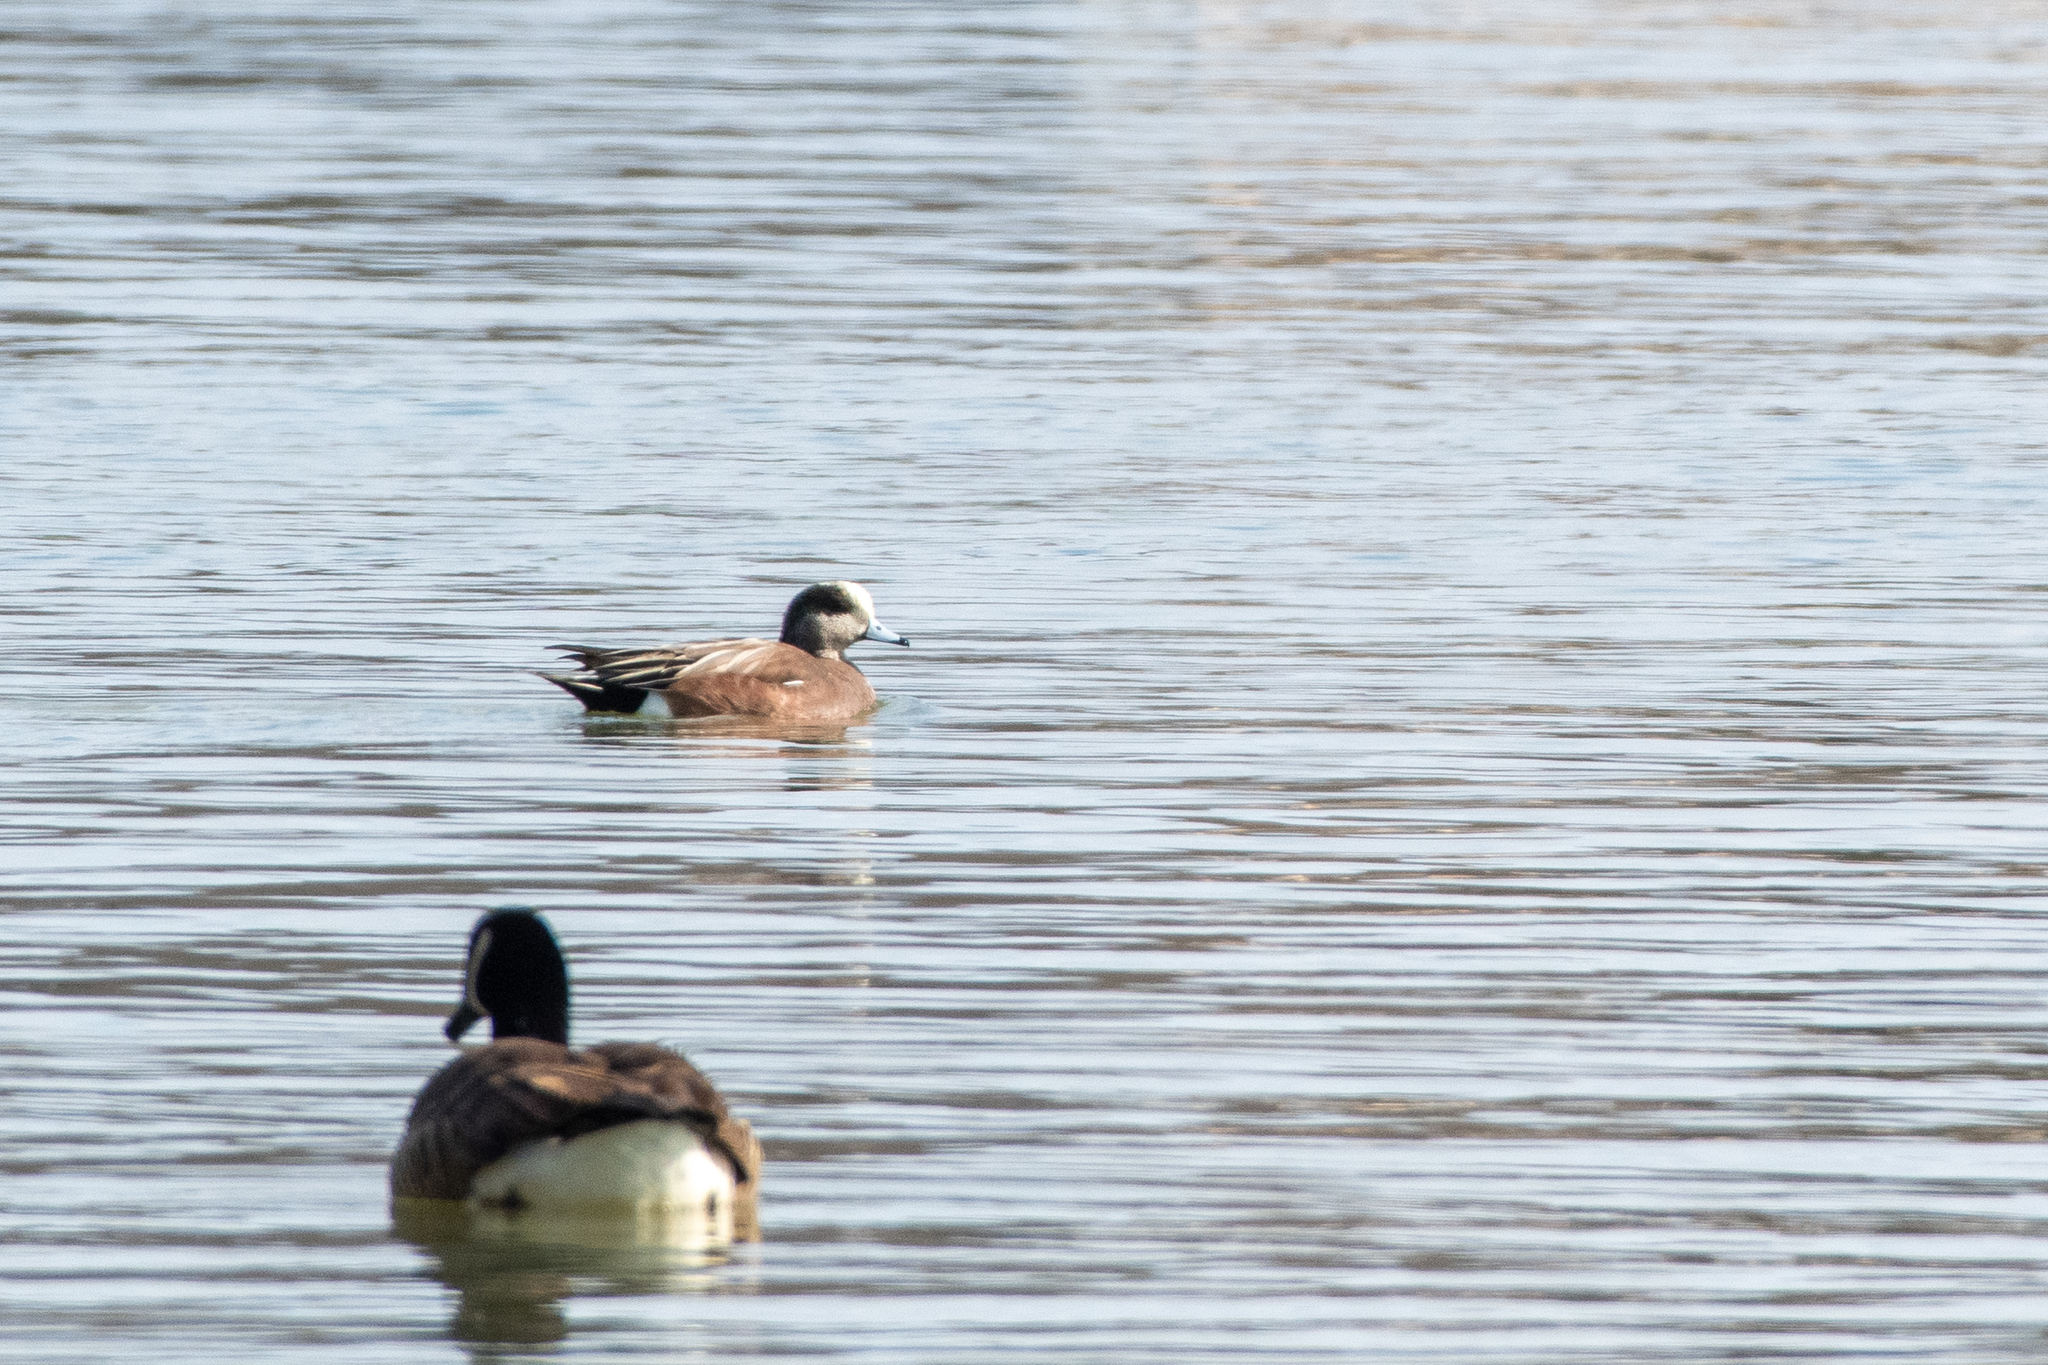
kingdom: Animalia
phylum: Chordata
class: Aves
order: Anseriformes
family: Anatidae
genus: Mareca
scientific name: Mareca americana
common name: American wigeon
